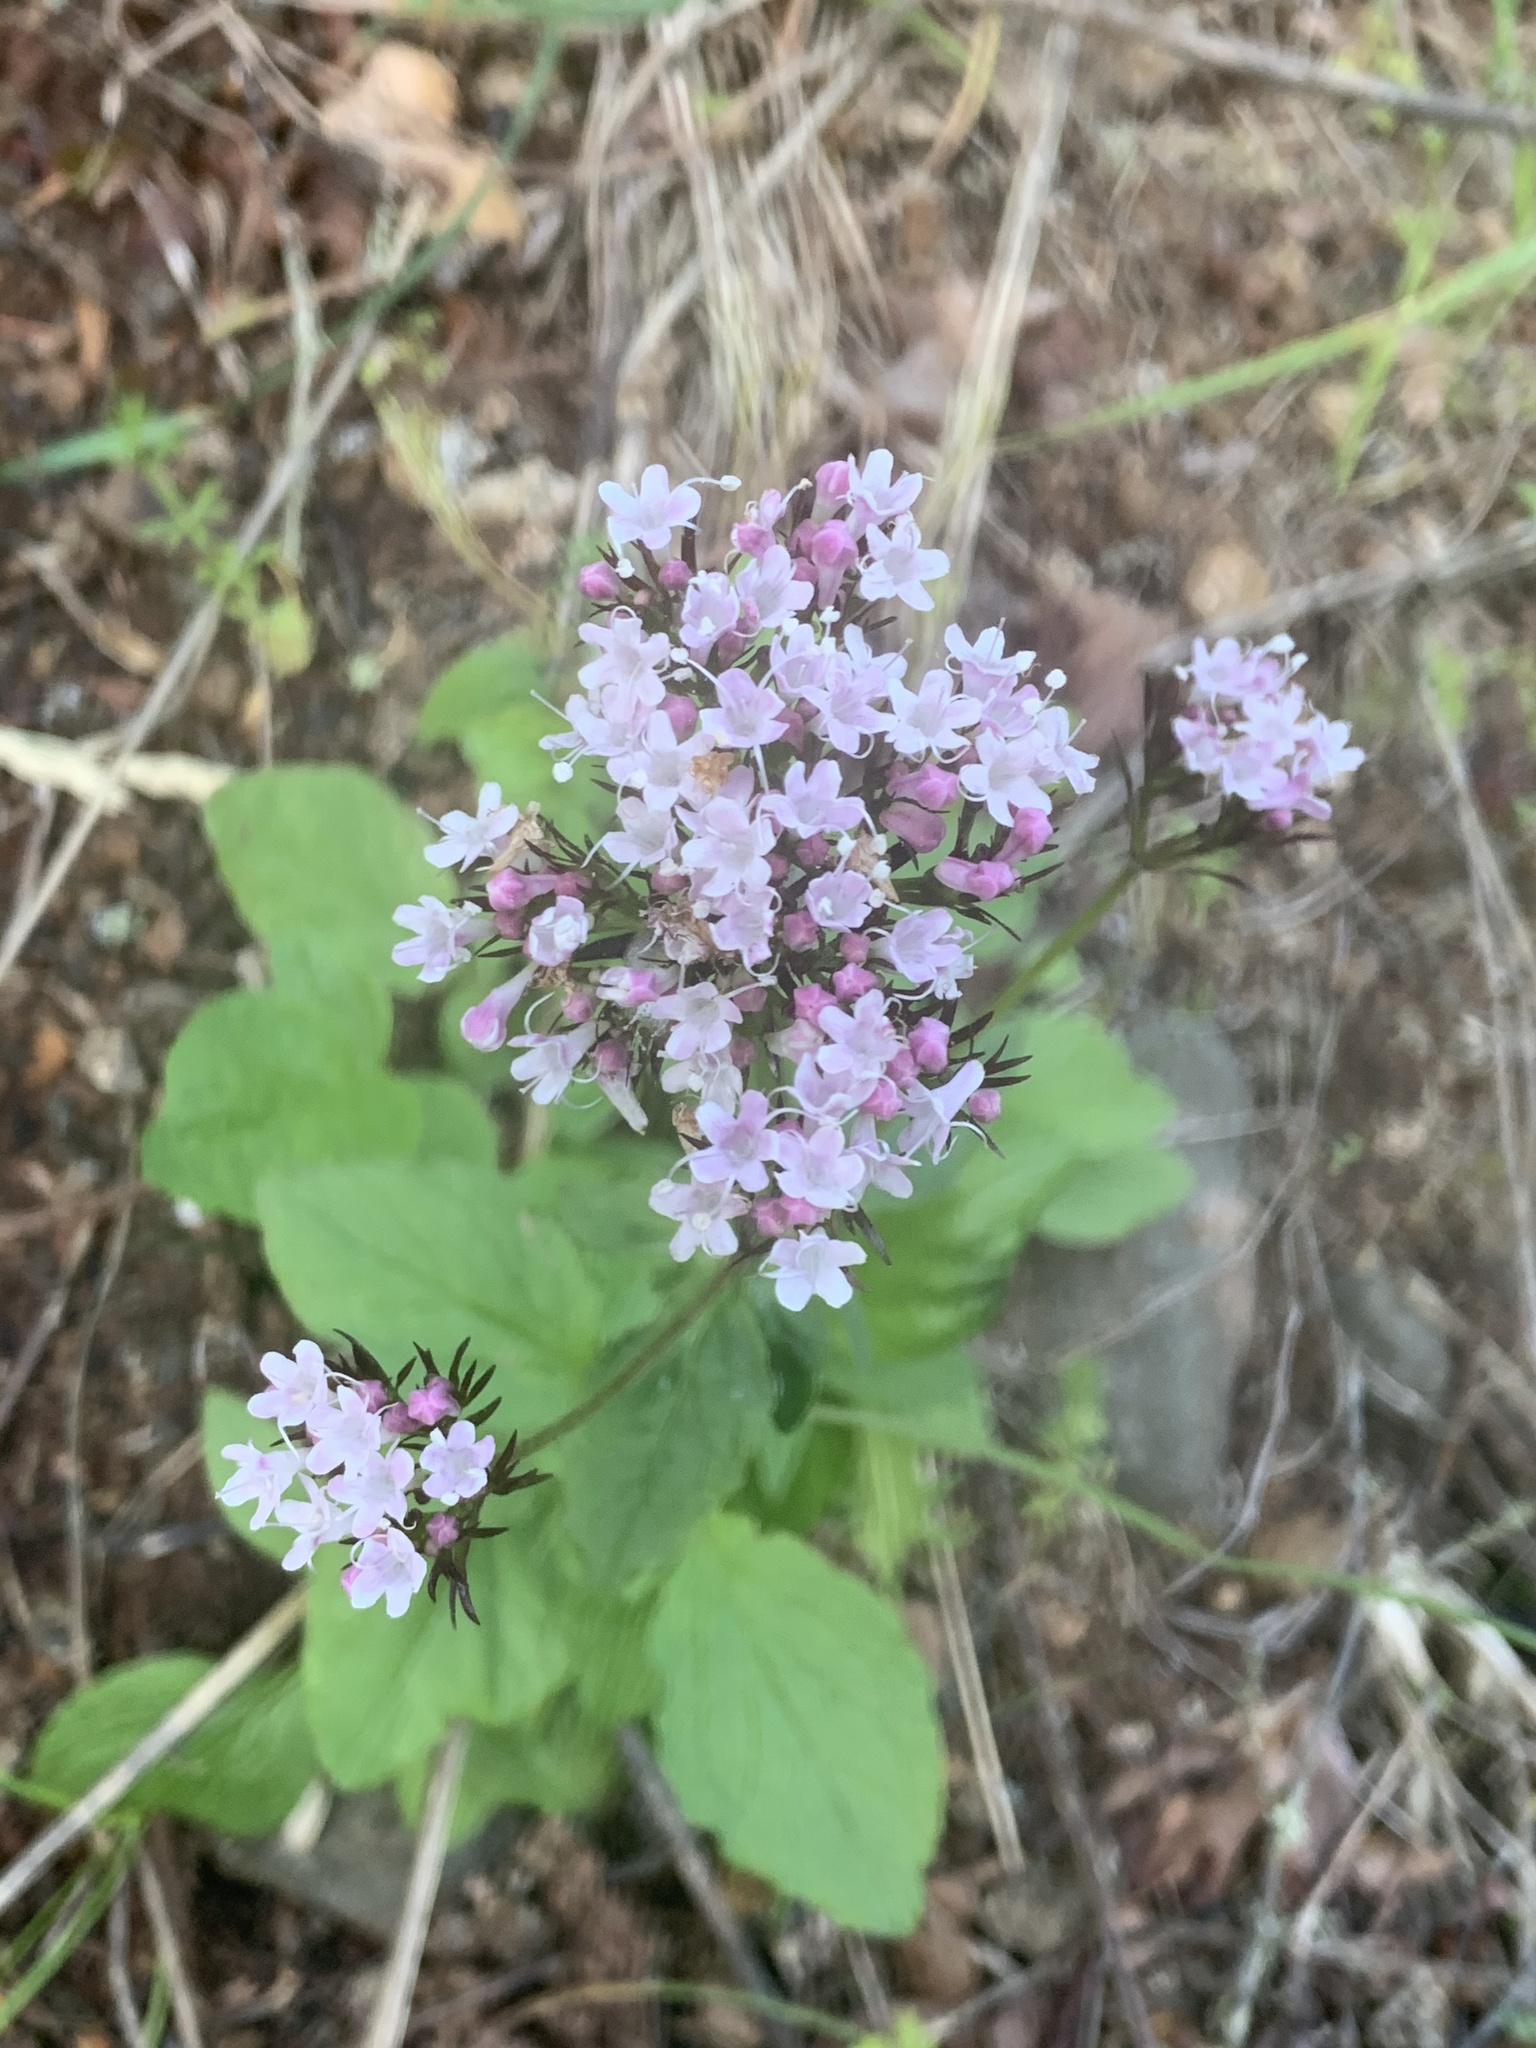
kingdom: Plantae
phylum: Tracheophyta
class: Magnoliopsida
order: Dipsacales
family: Caprifoliaceae
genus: Valeriana
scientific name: Valeriana scouleri
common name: Scouler's valerian
